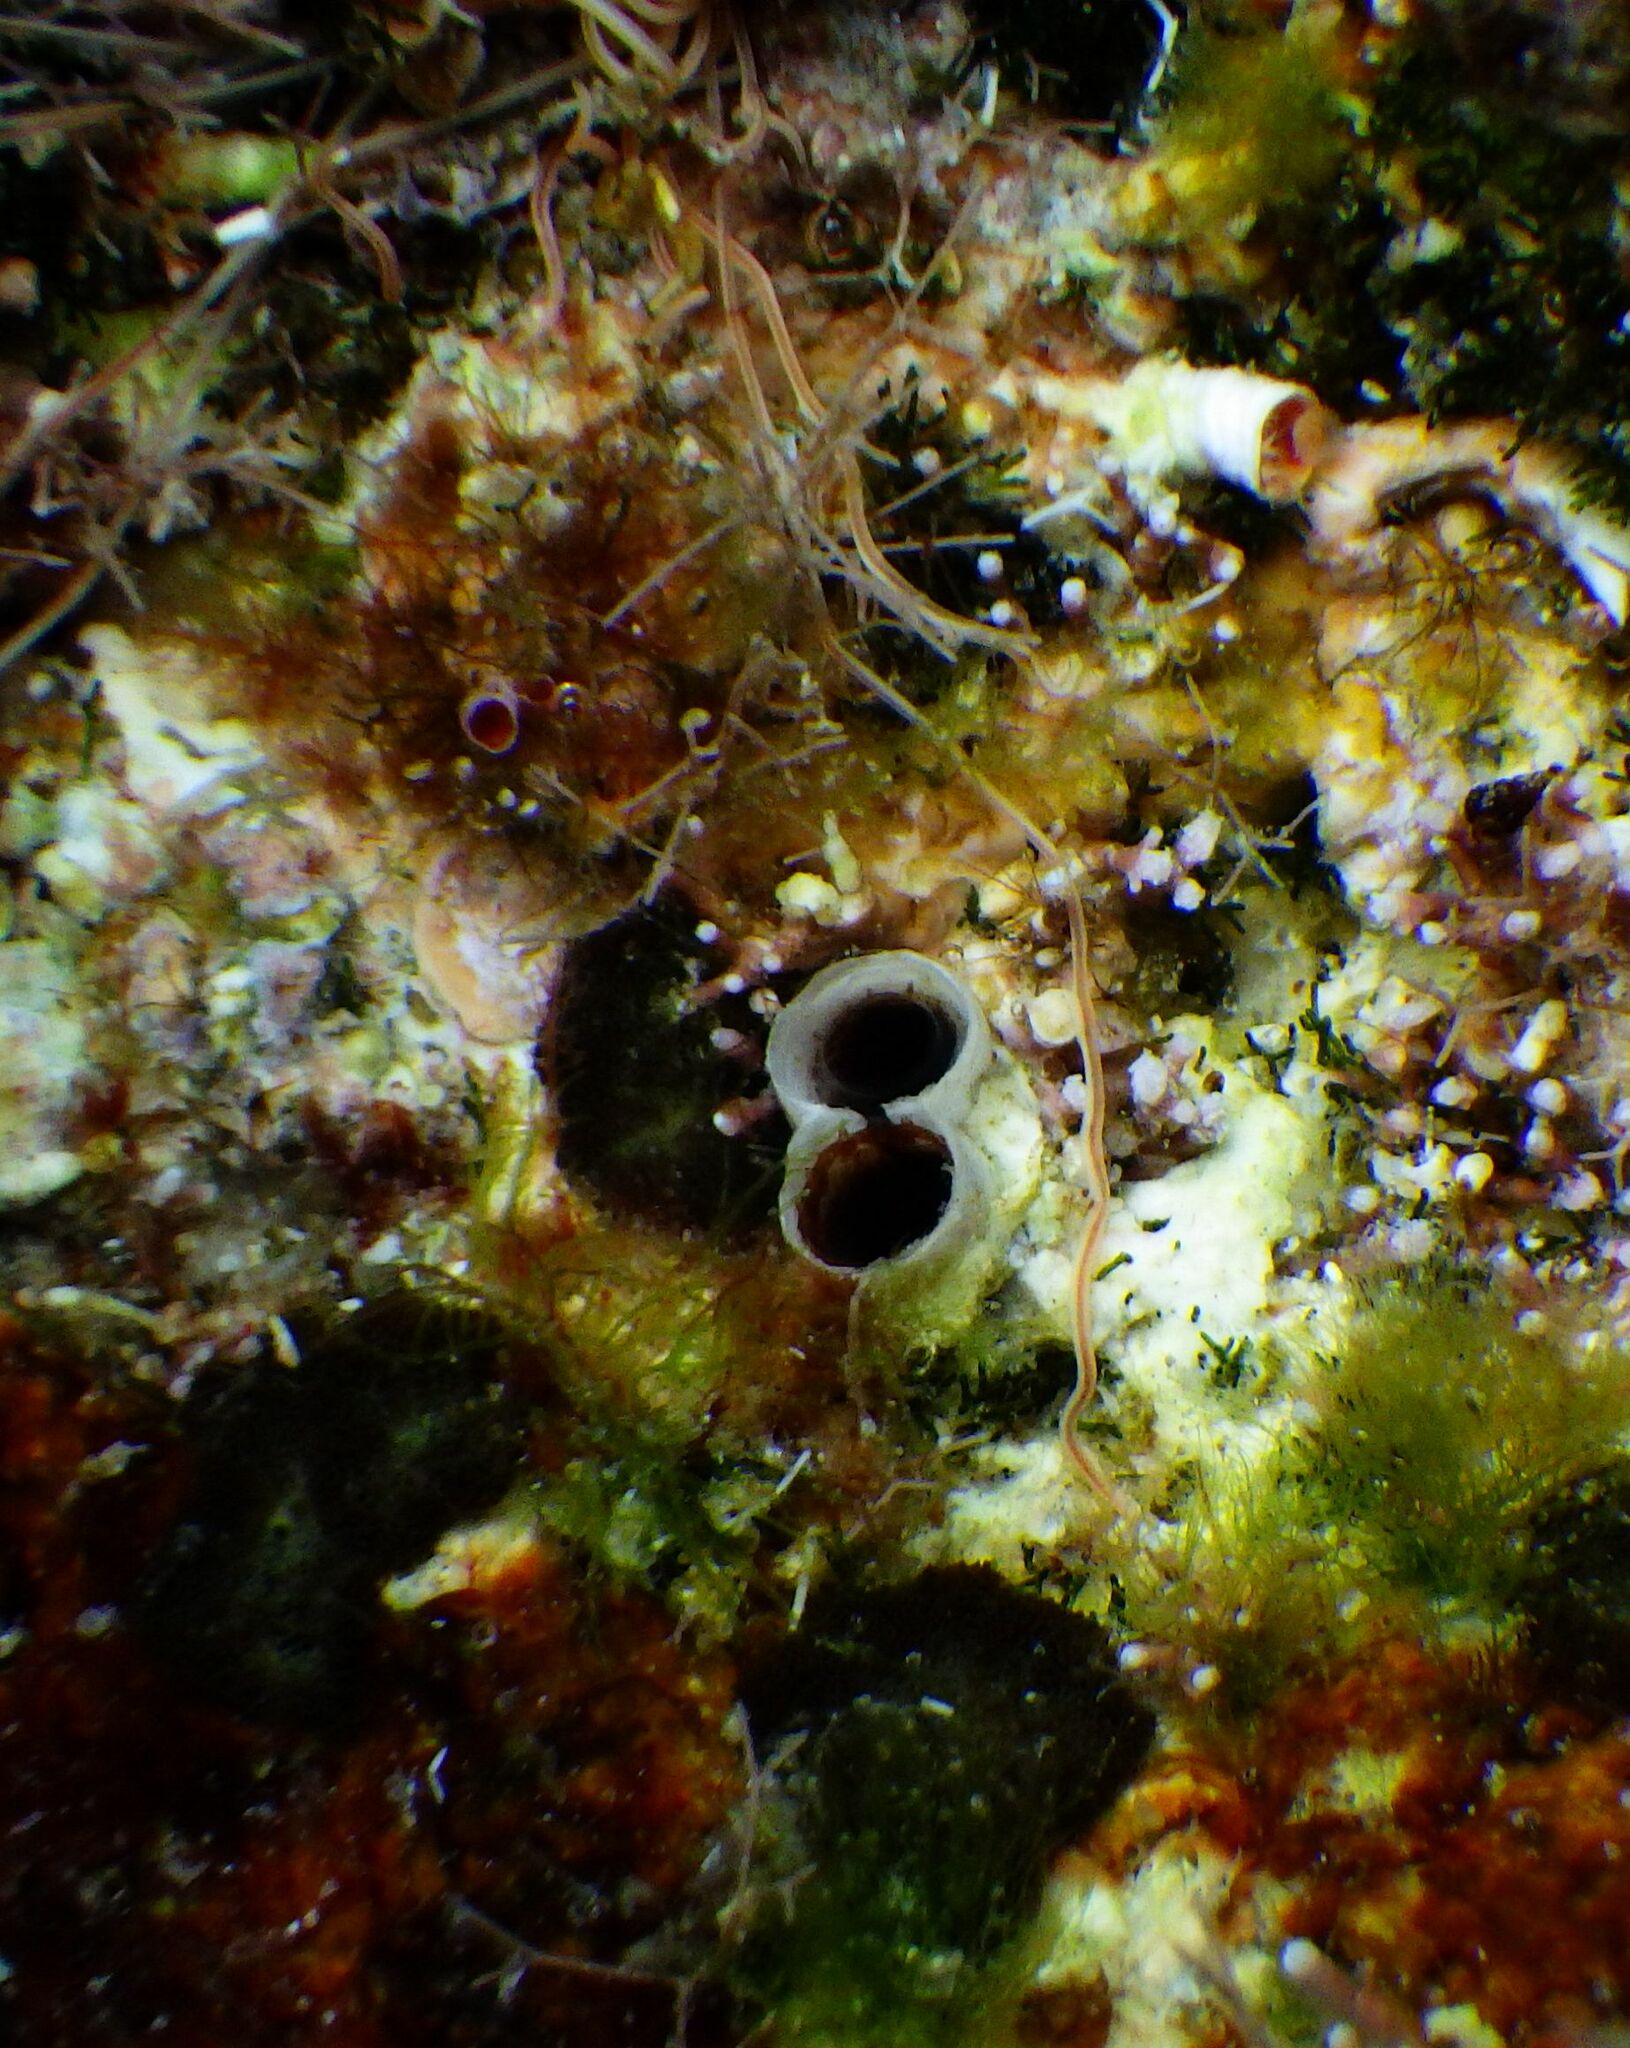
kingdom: Animalia
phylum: Mollusca
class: Bivalvia
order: Gastrochaenida
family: Gastrochaenidae
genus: Rocellaria
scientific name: Rocellaria dubia
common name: European flask shell
